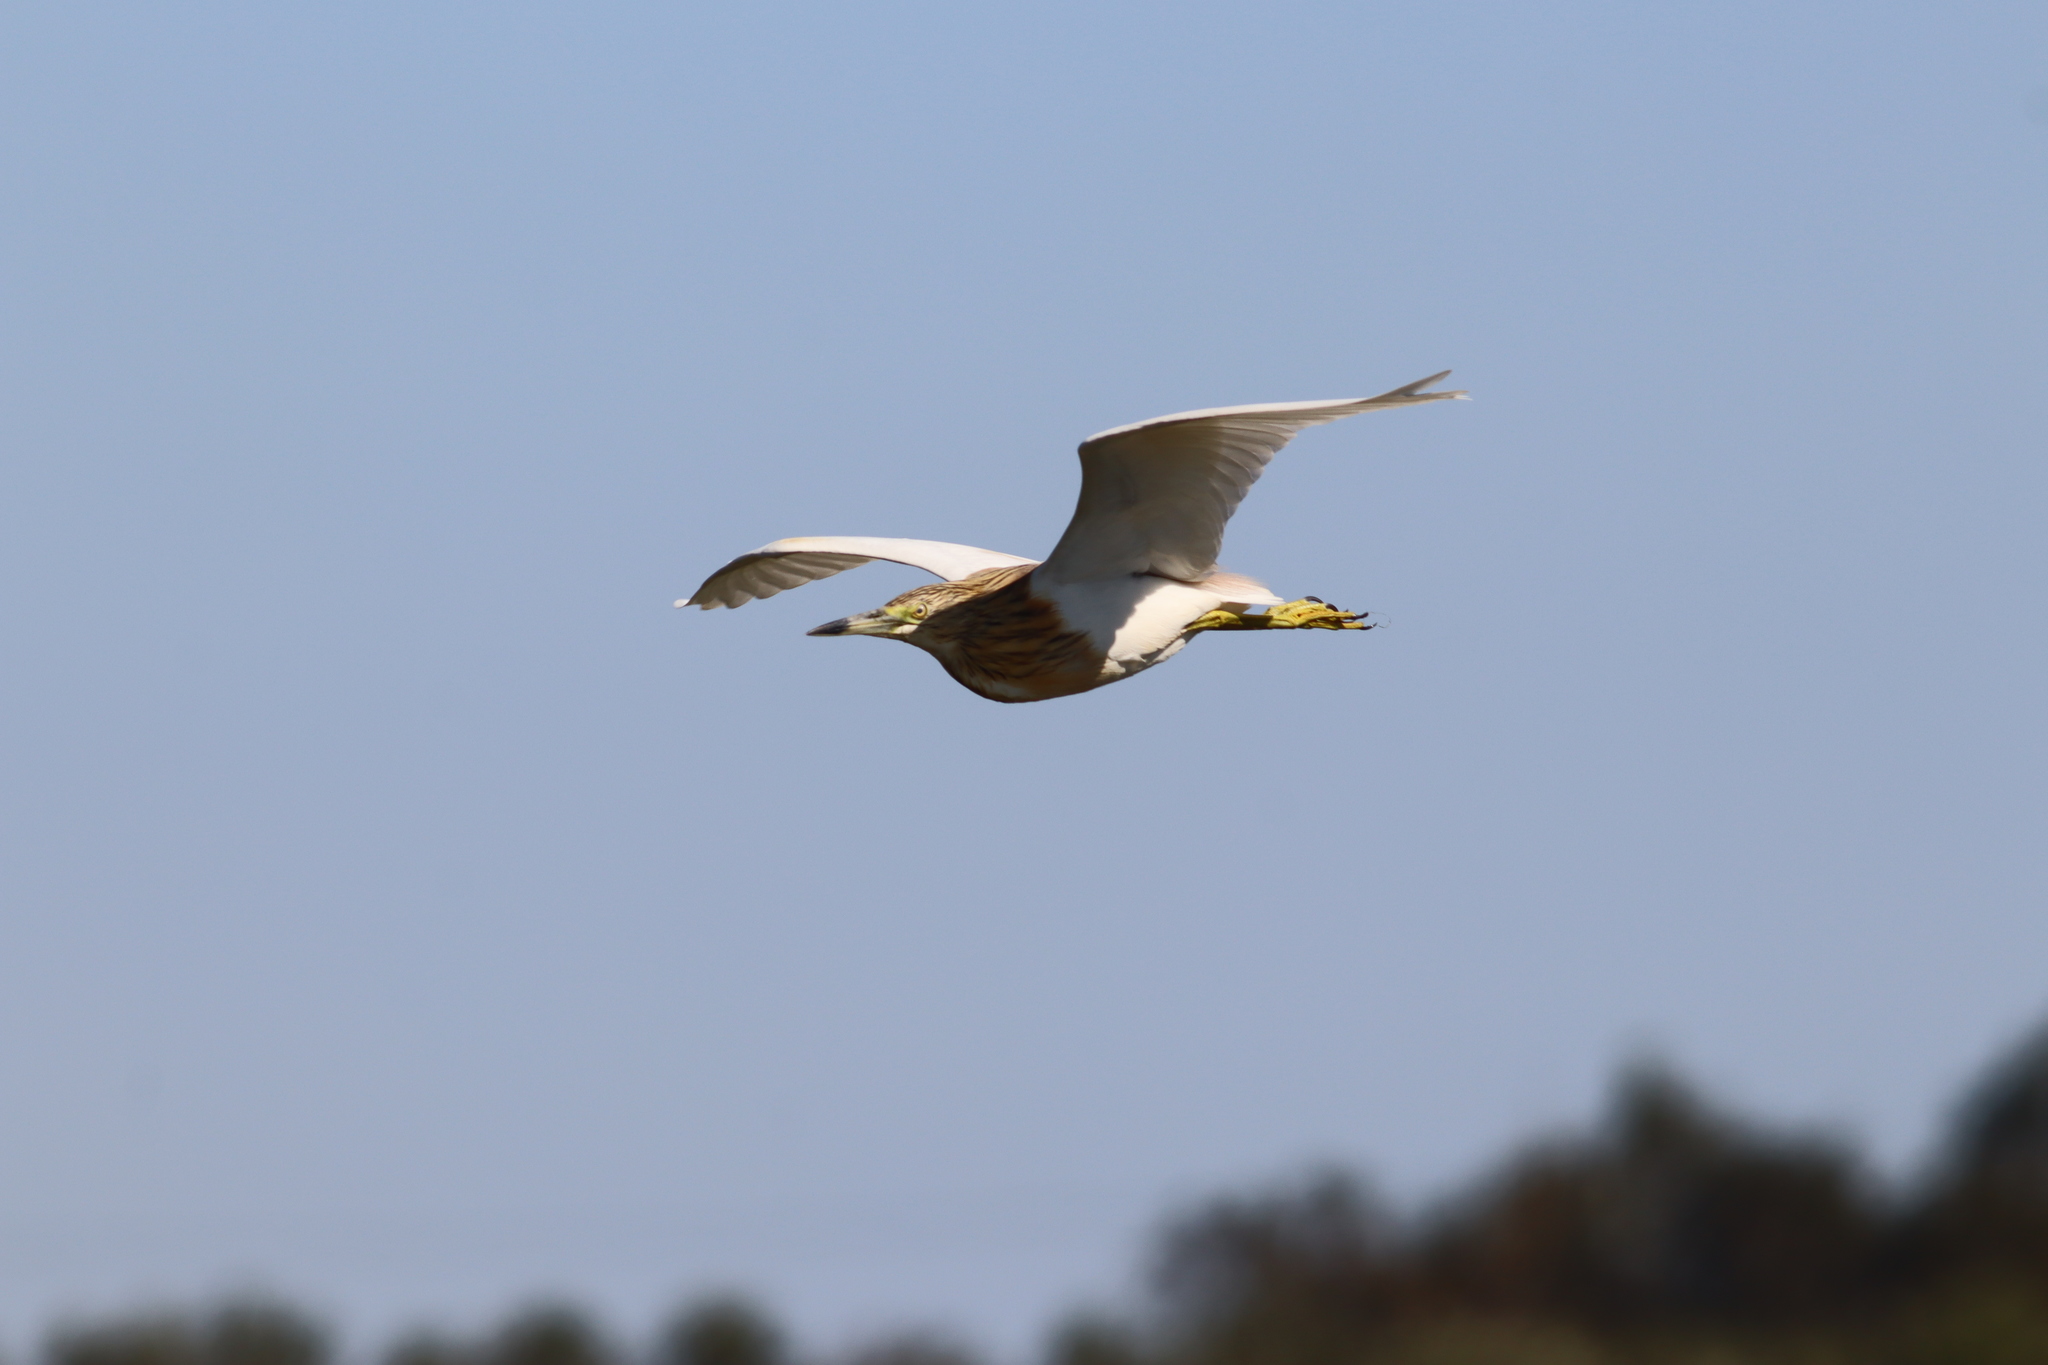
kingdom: Animalia
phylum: Chordata
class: Aves
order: Pelecaniformes
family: Ardeidae
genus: Ardeola
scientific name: Ardeola ralloides
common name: Squacco heron
